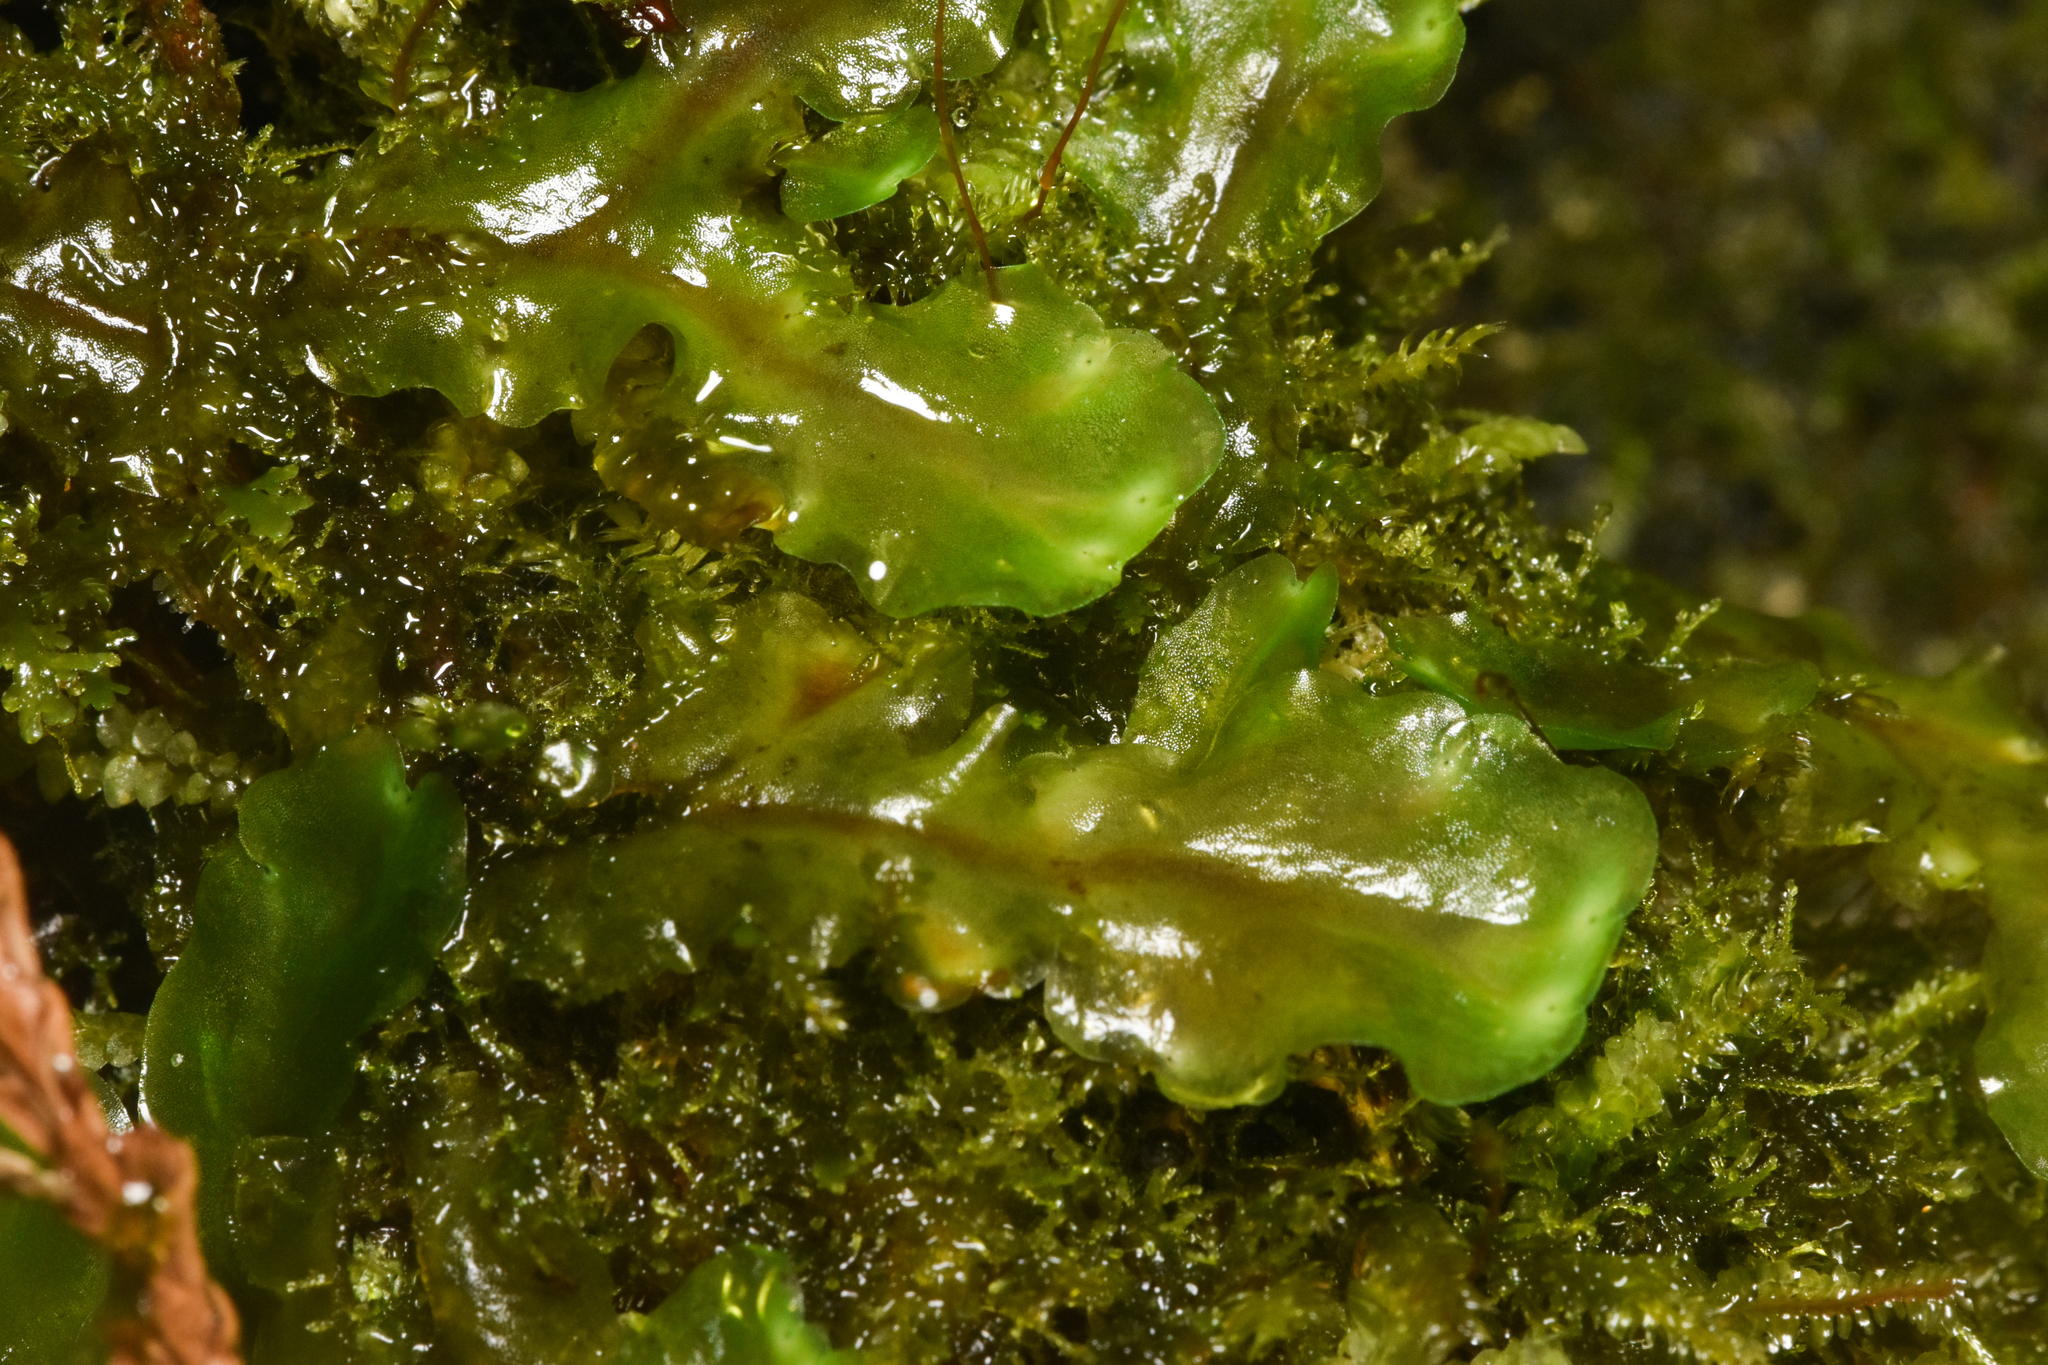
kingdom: Plantae
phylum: Marchantiophyta
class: Jungermanniopsida
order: Pelliales
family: Pelliaceae
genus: Pellia
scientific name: Pellia neesiana
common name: Nees  pellia
